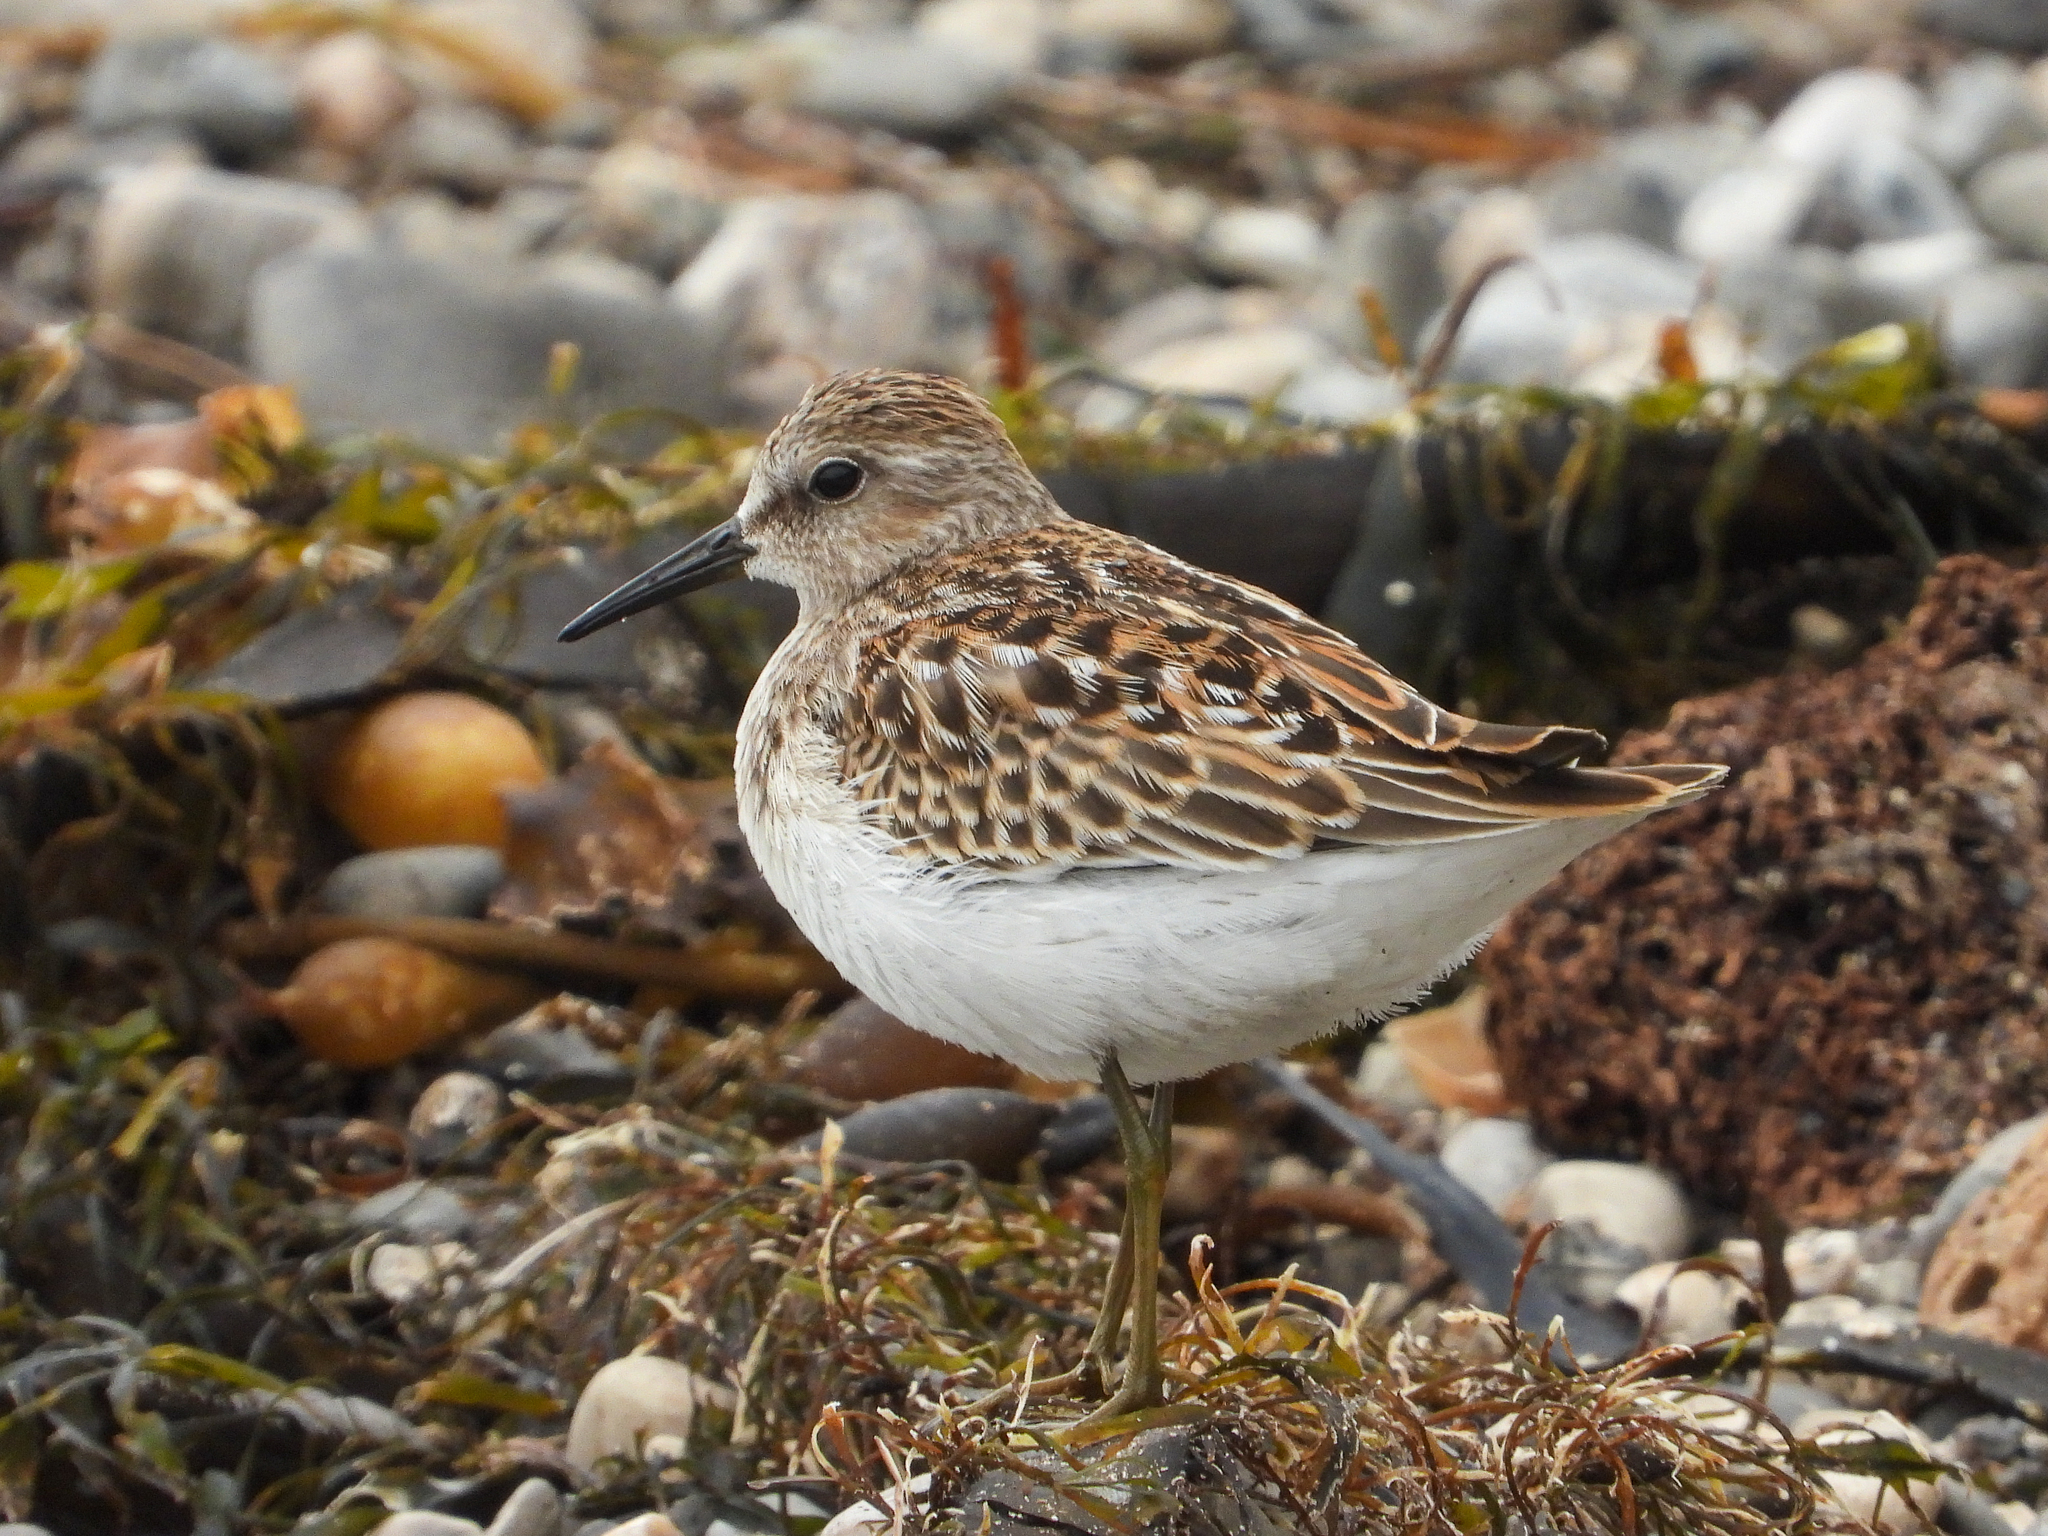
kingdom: Animalia
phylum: Chordata
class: Aves
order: Charadriiformes
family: Scolopacidae
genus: Calidris
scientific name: Calidris minutilla
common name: Least sandpiper
